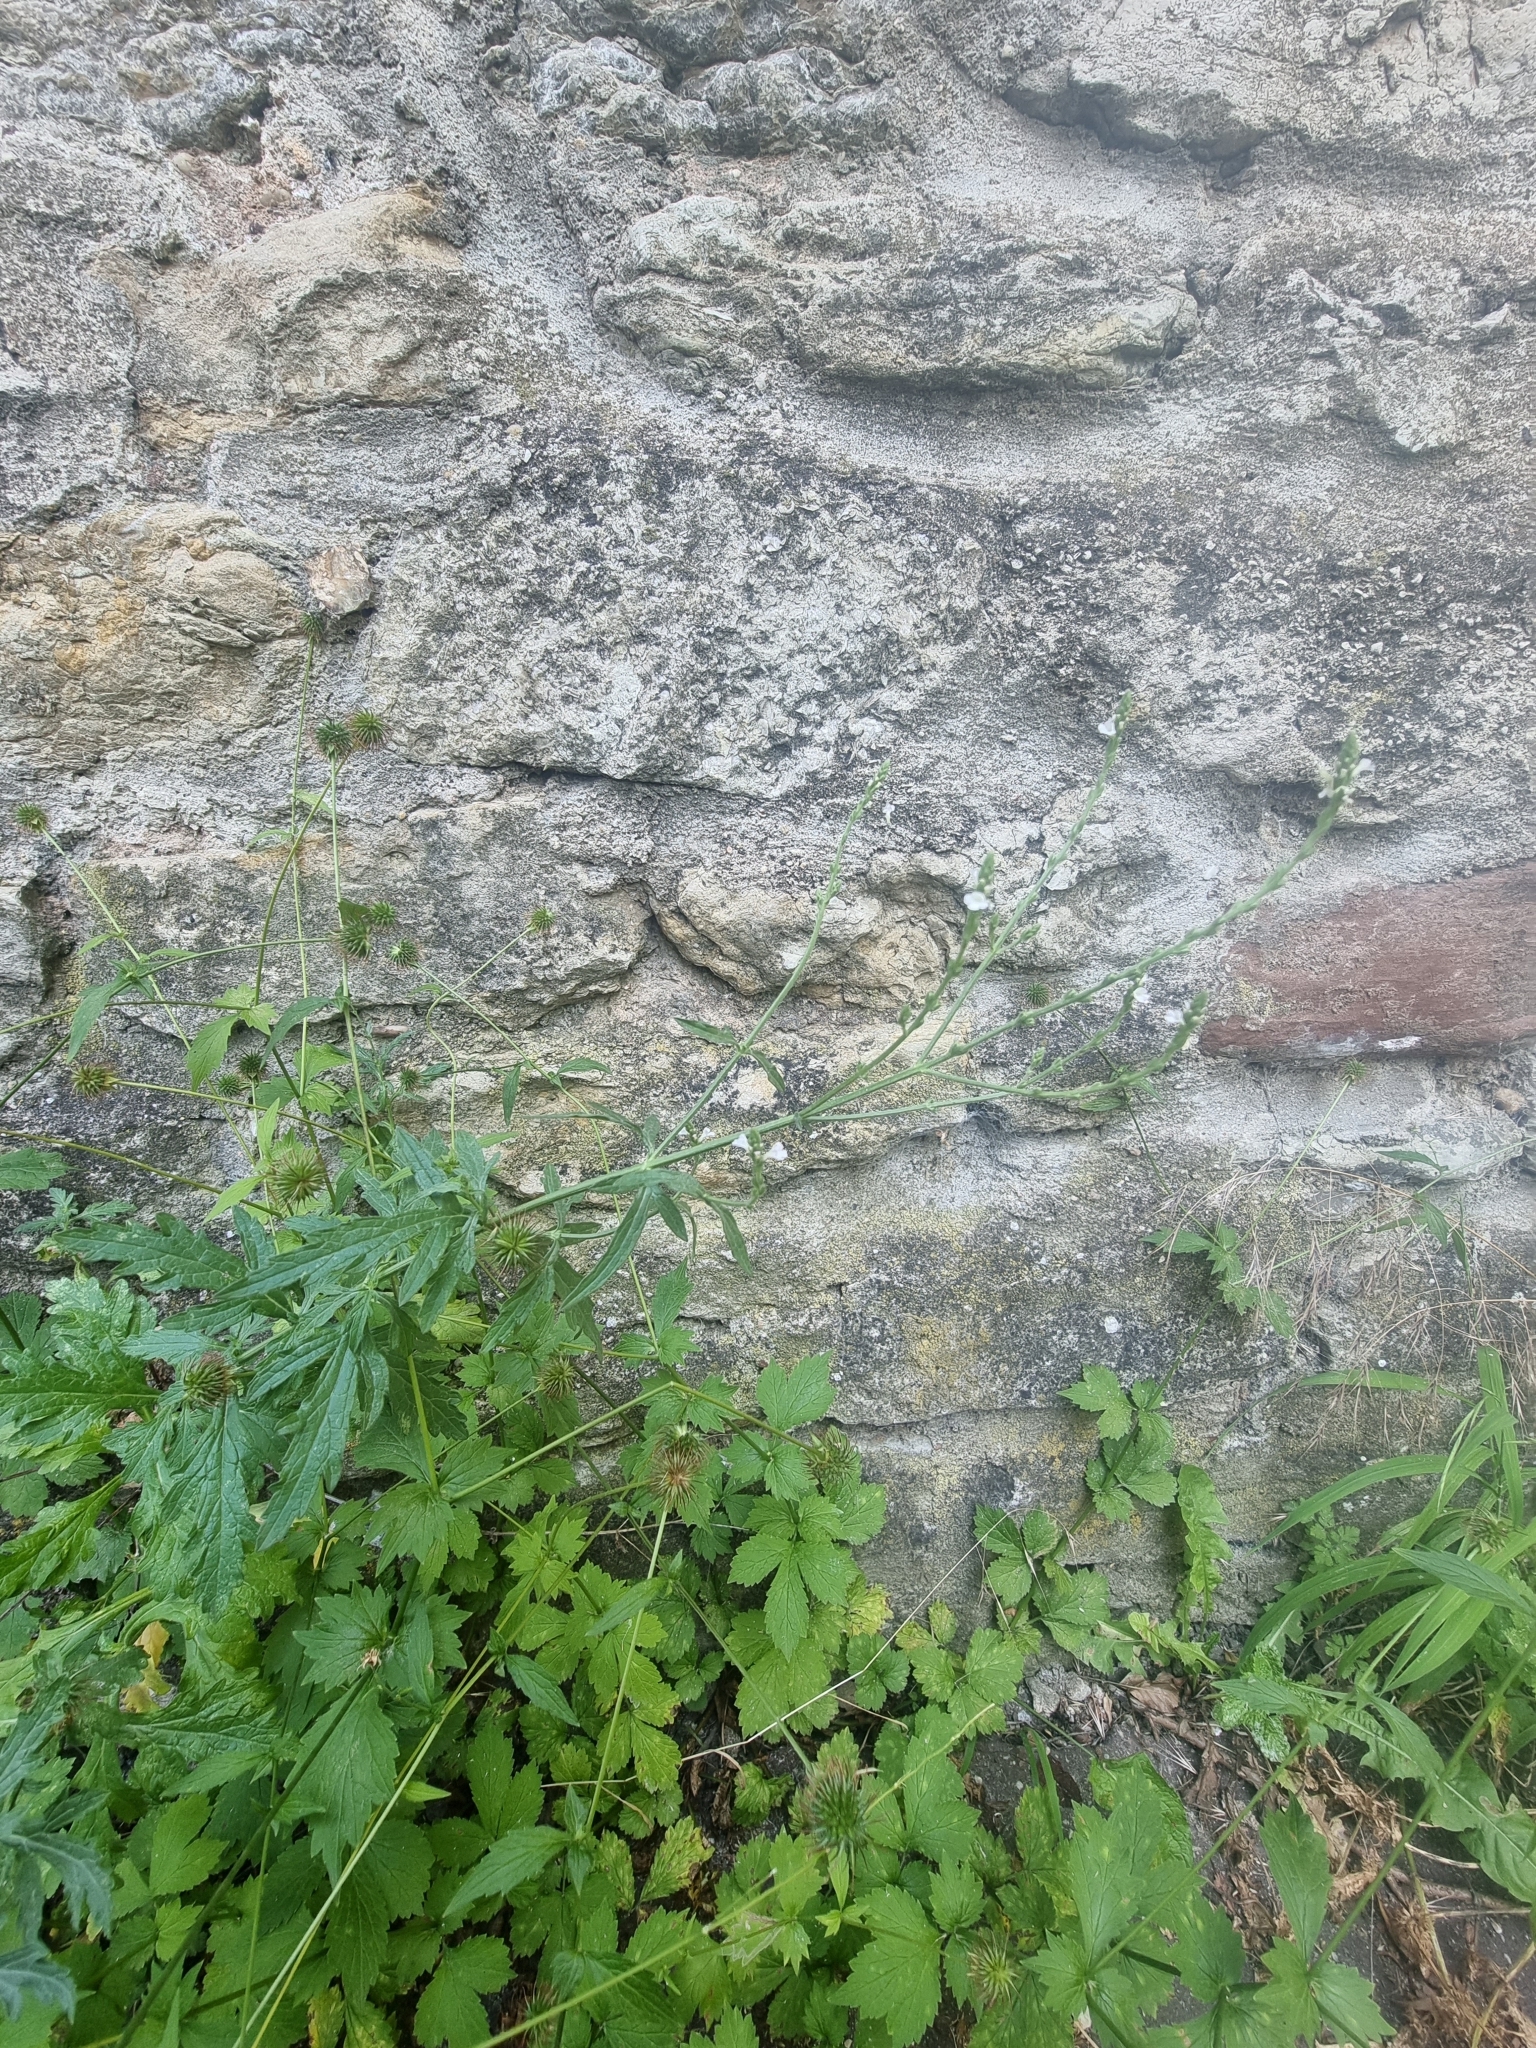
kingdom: Plantae
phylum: Tracheophyta
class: Magnoliopsida
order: Lamiales
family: Verbenaceae
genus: Verbena
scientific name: Verbena officinalis
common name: Vervain
